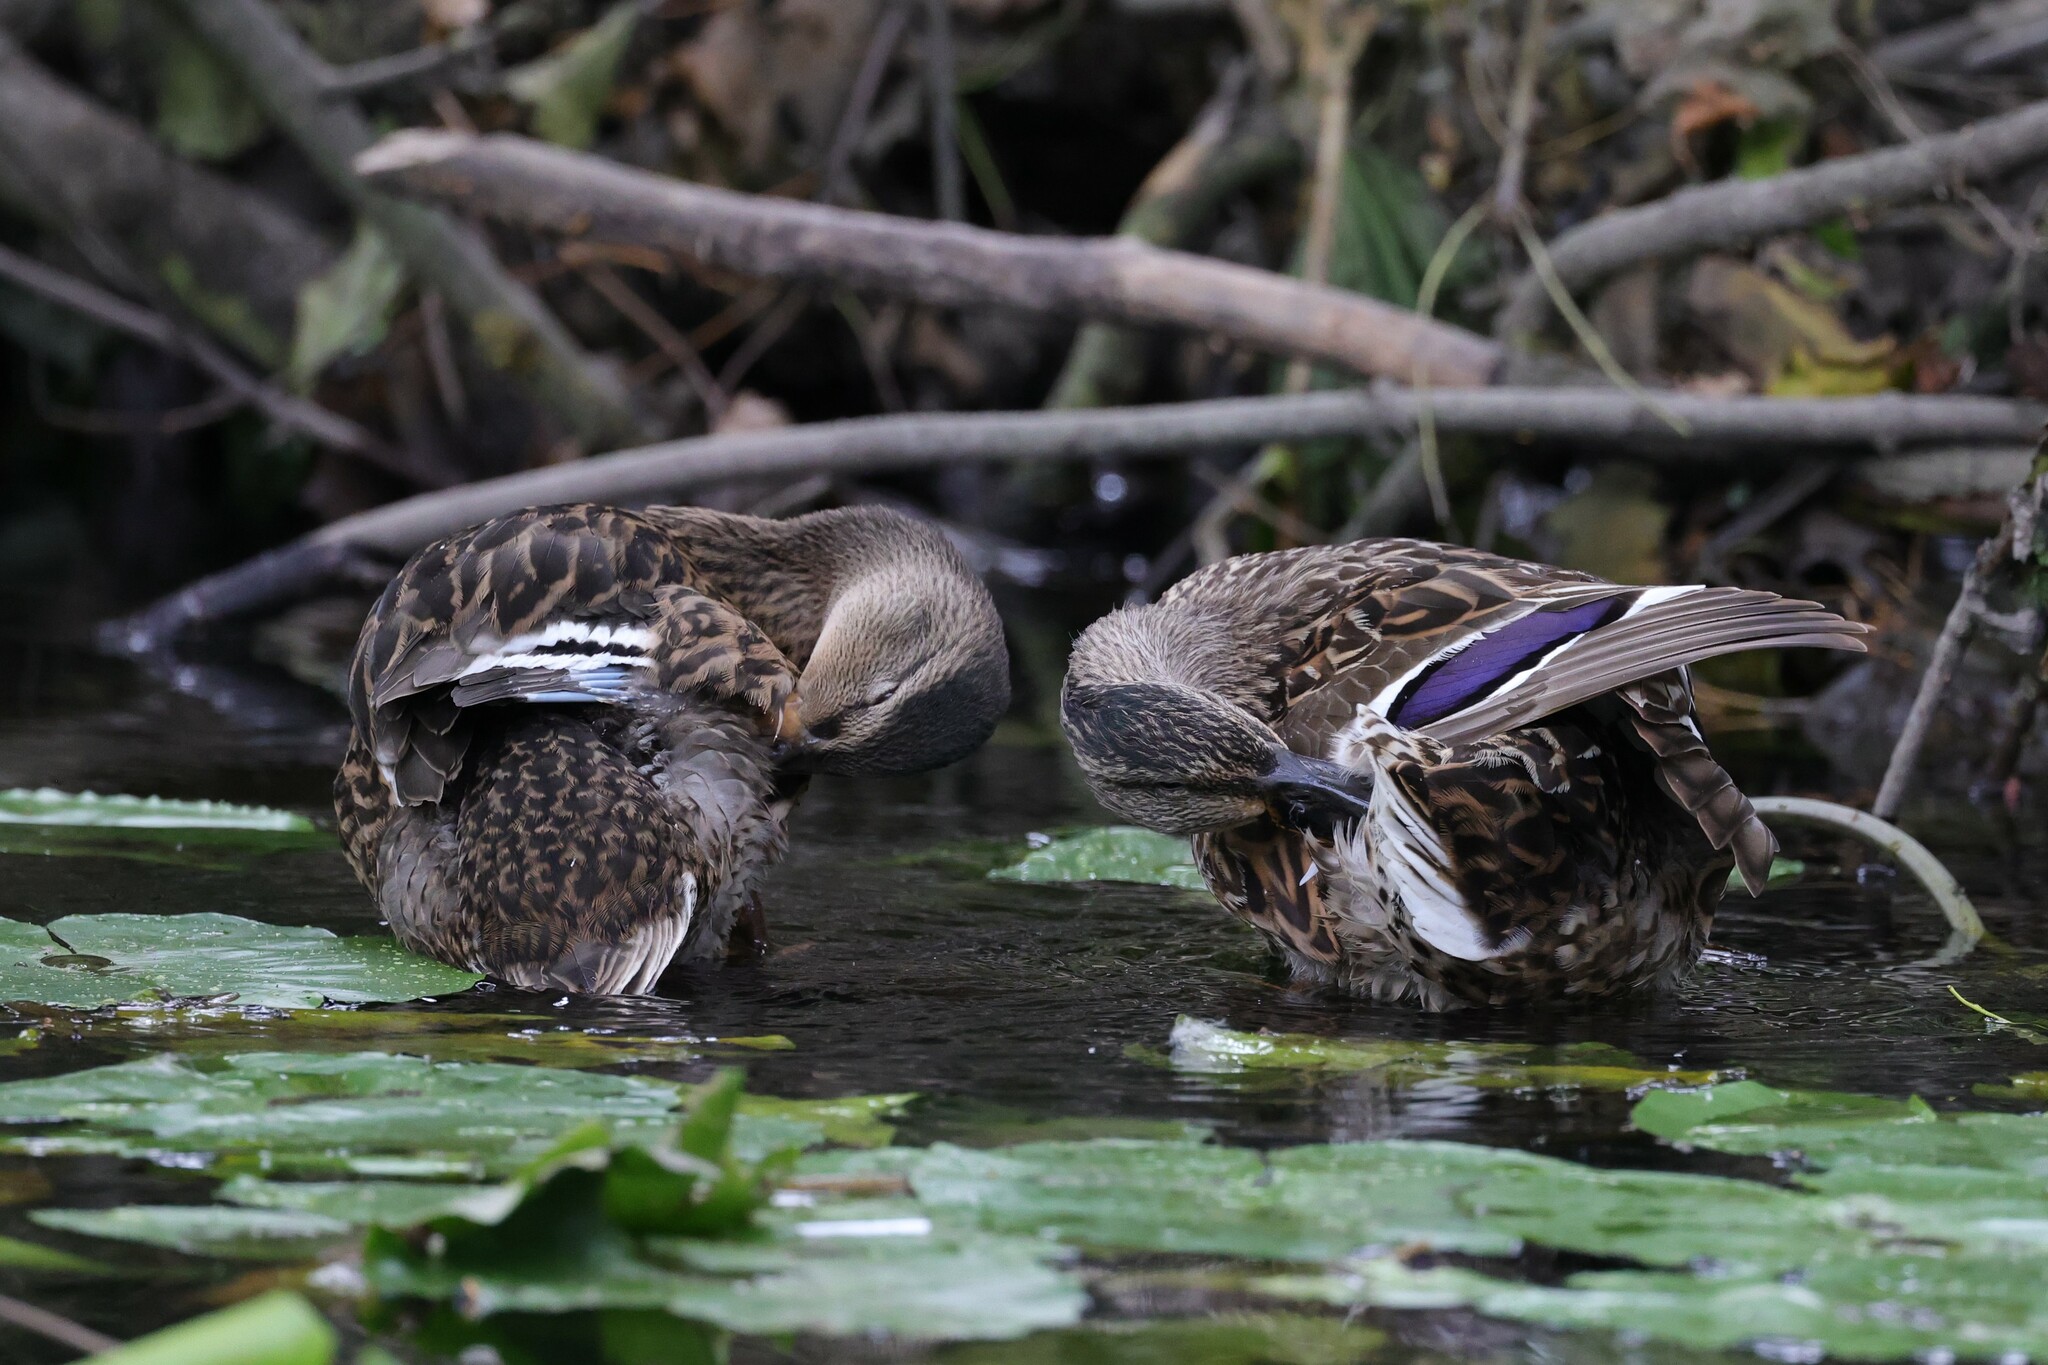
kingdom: Animalia
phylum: Chordata
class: Aves
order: Anseriformes
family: Anatidae
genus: Anas
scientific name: Anas platyrhynchos
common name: Mallard
